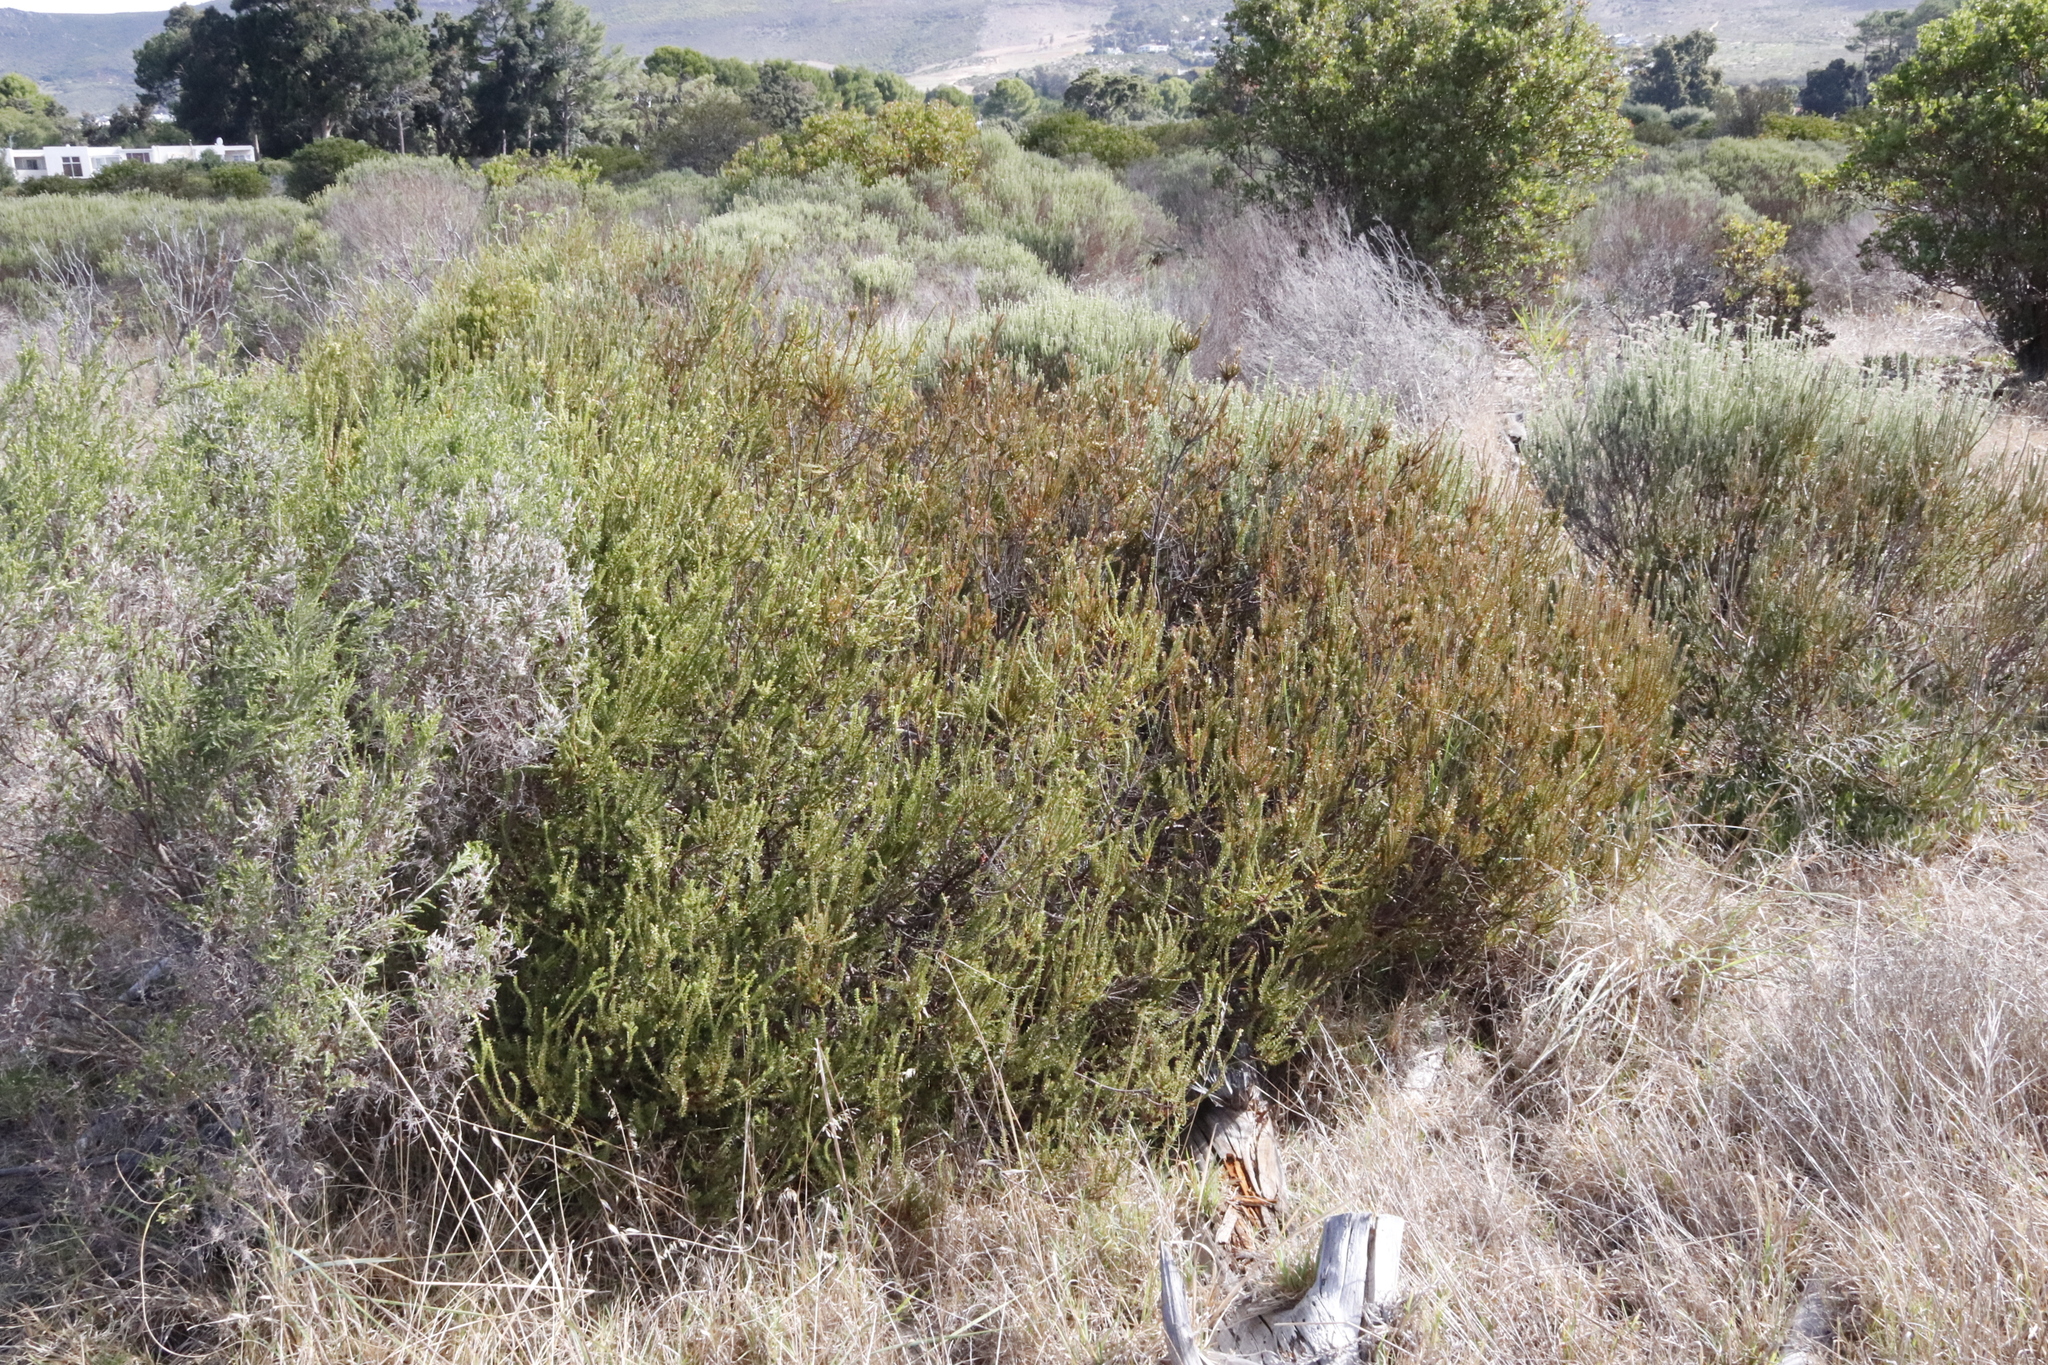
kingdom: Plantae
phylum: Tracheophyta
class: Magnoliopsida
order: Malvales
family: Thymelaeaceae
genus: Struthiola
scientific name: Struthiola striata
